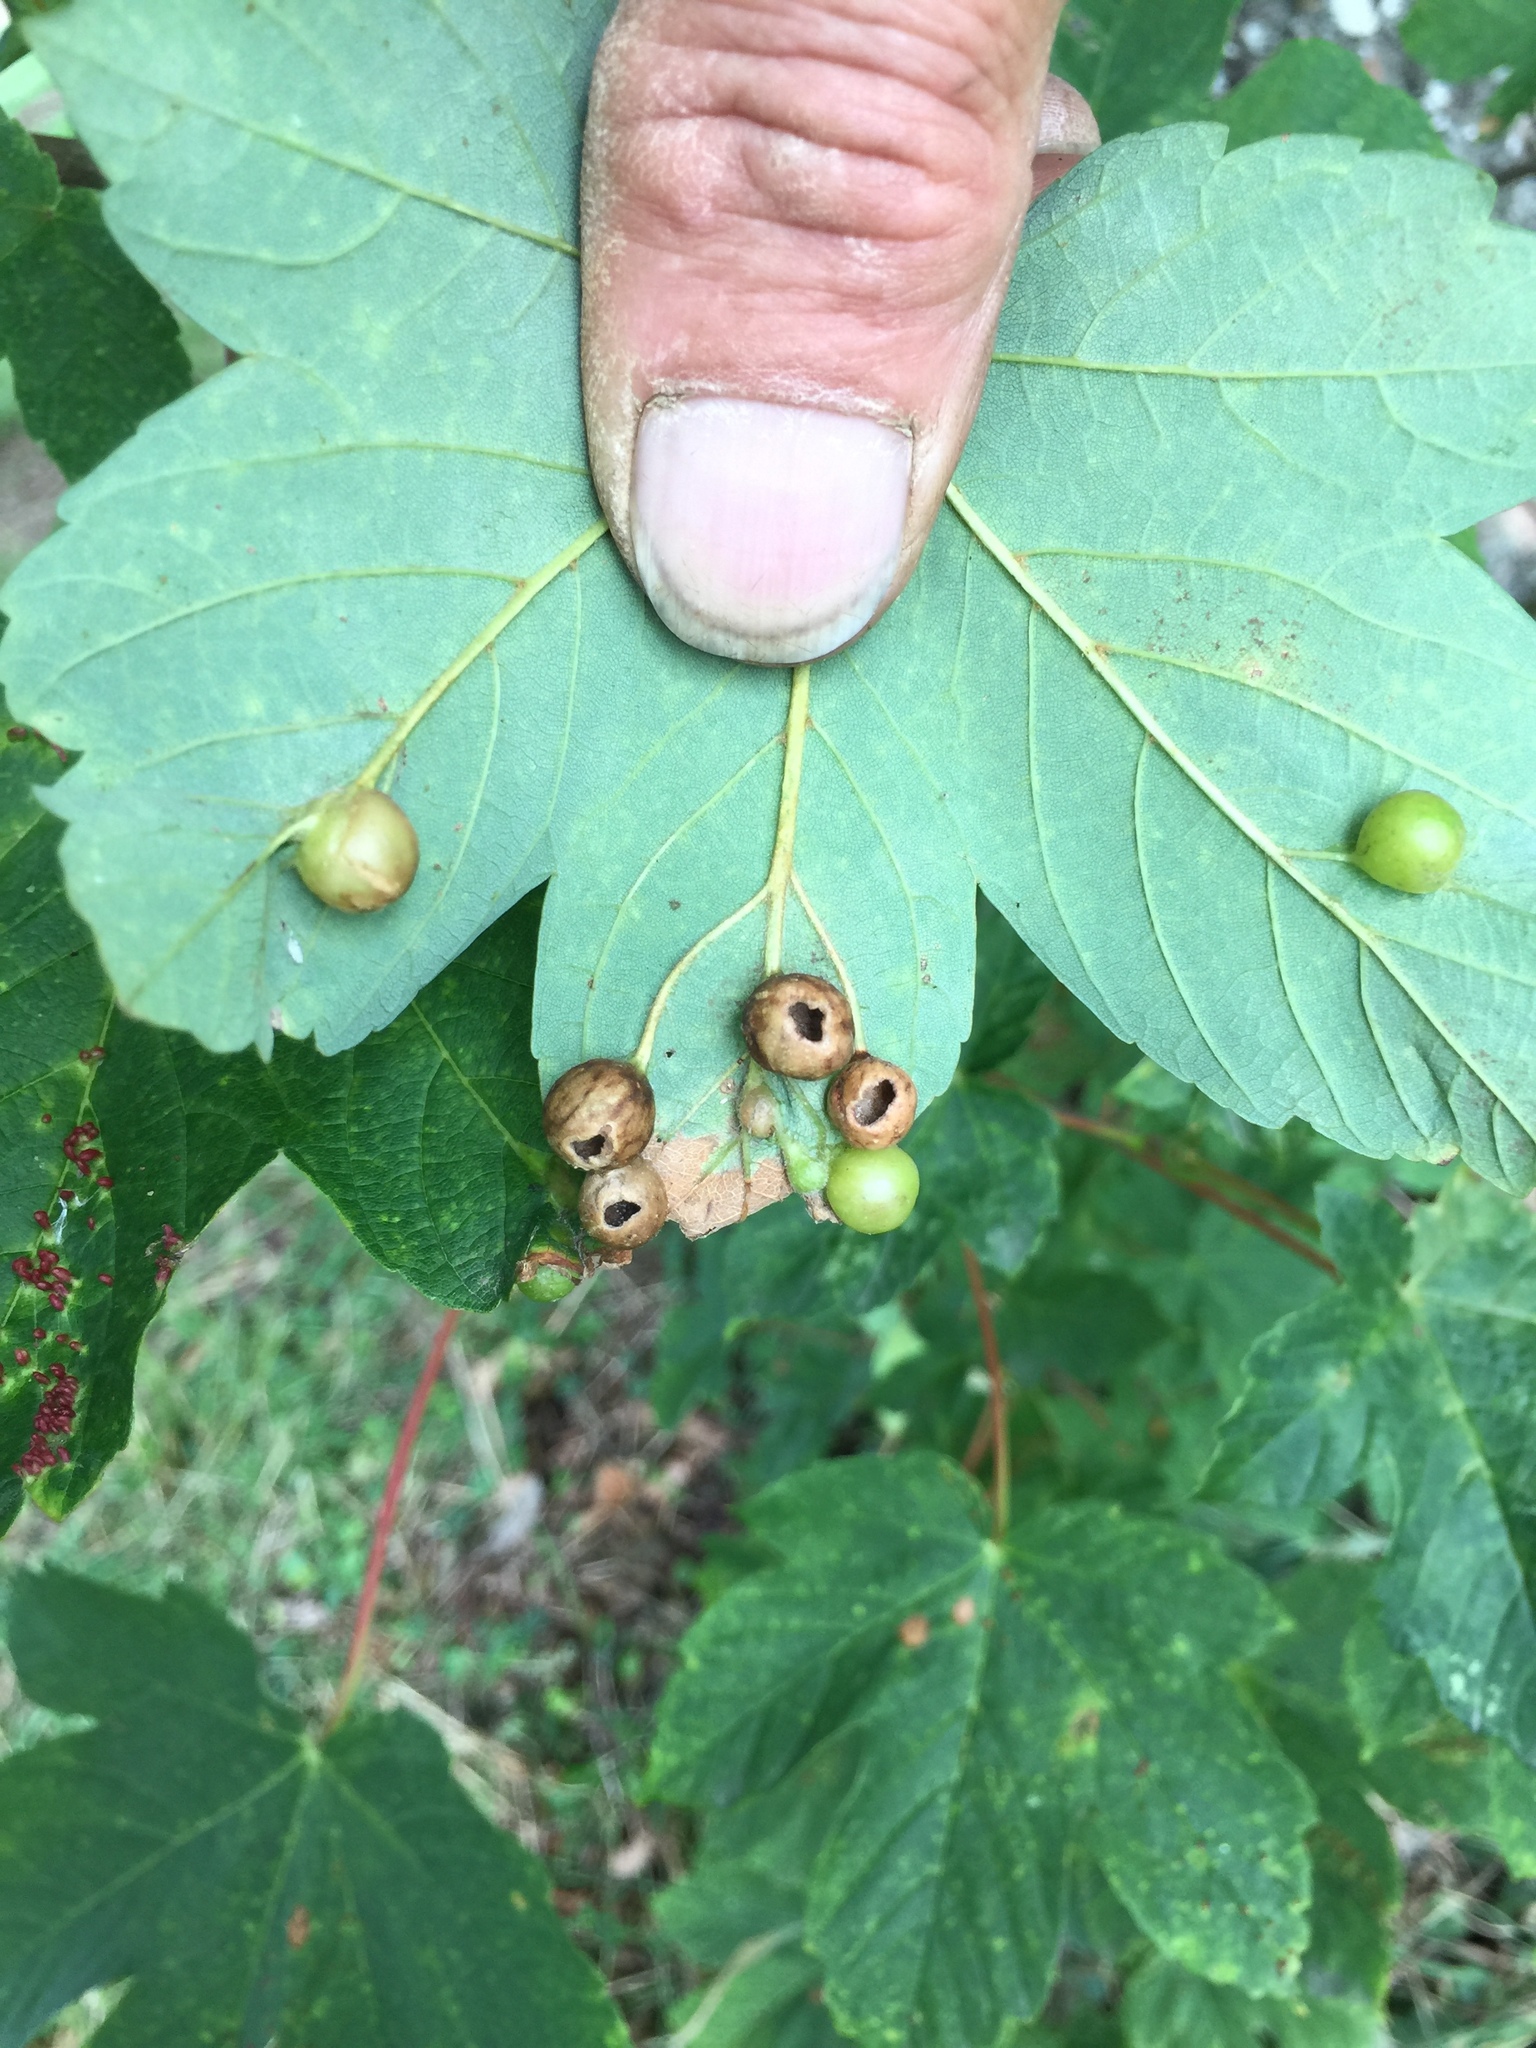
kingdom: Animalia
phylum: Arthropoda
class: Insecta
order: Hymenoptera
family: Cynipidae
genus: Pediaspis
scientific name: Pediaspis aceris
